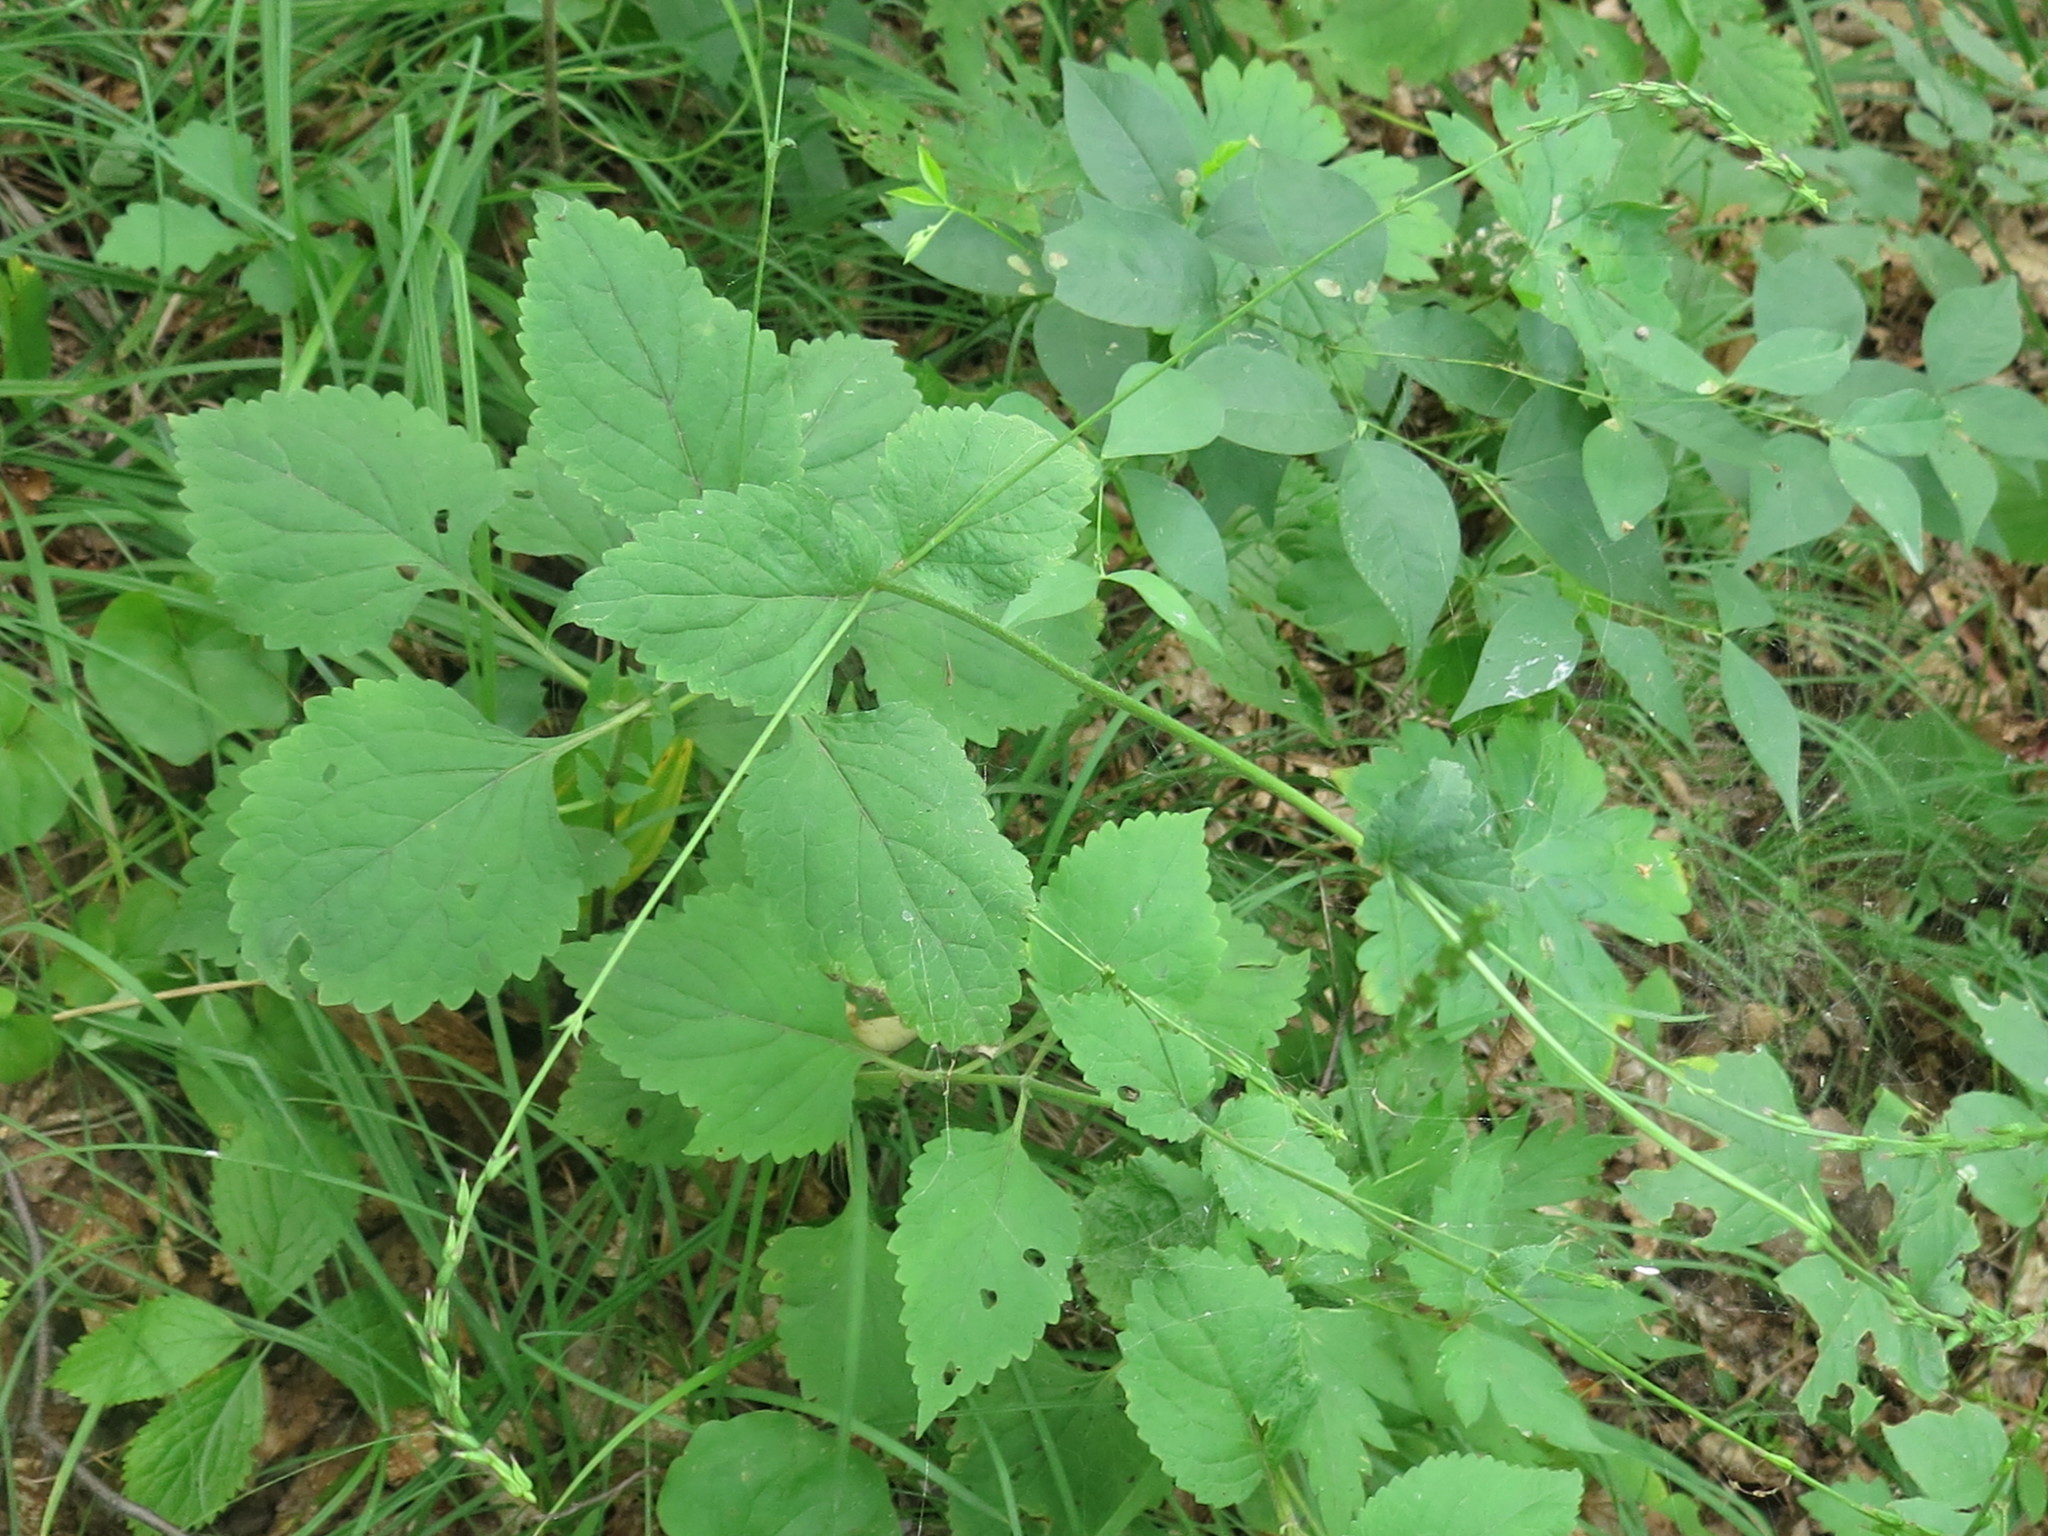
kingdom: Plantae
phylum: Tracheophyta
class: Magnoliopsida
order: Lamiales
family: Phrymaceae
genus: Phryma
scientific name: Phryma nana
